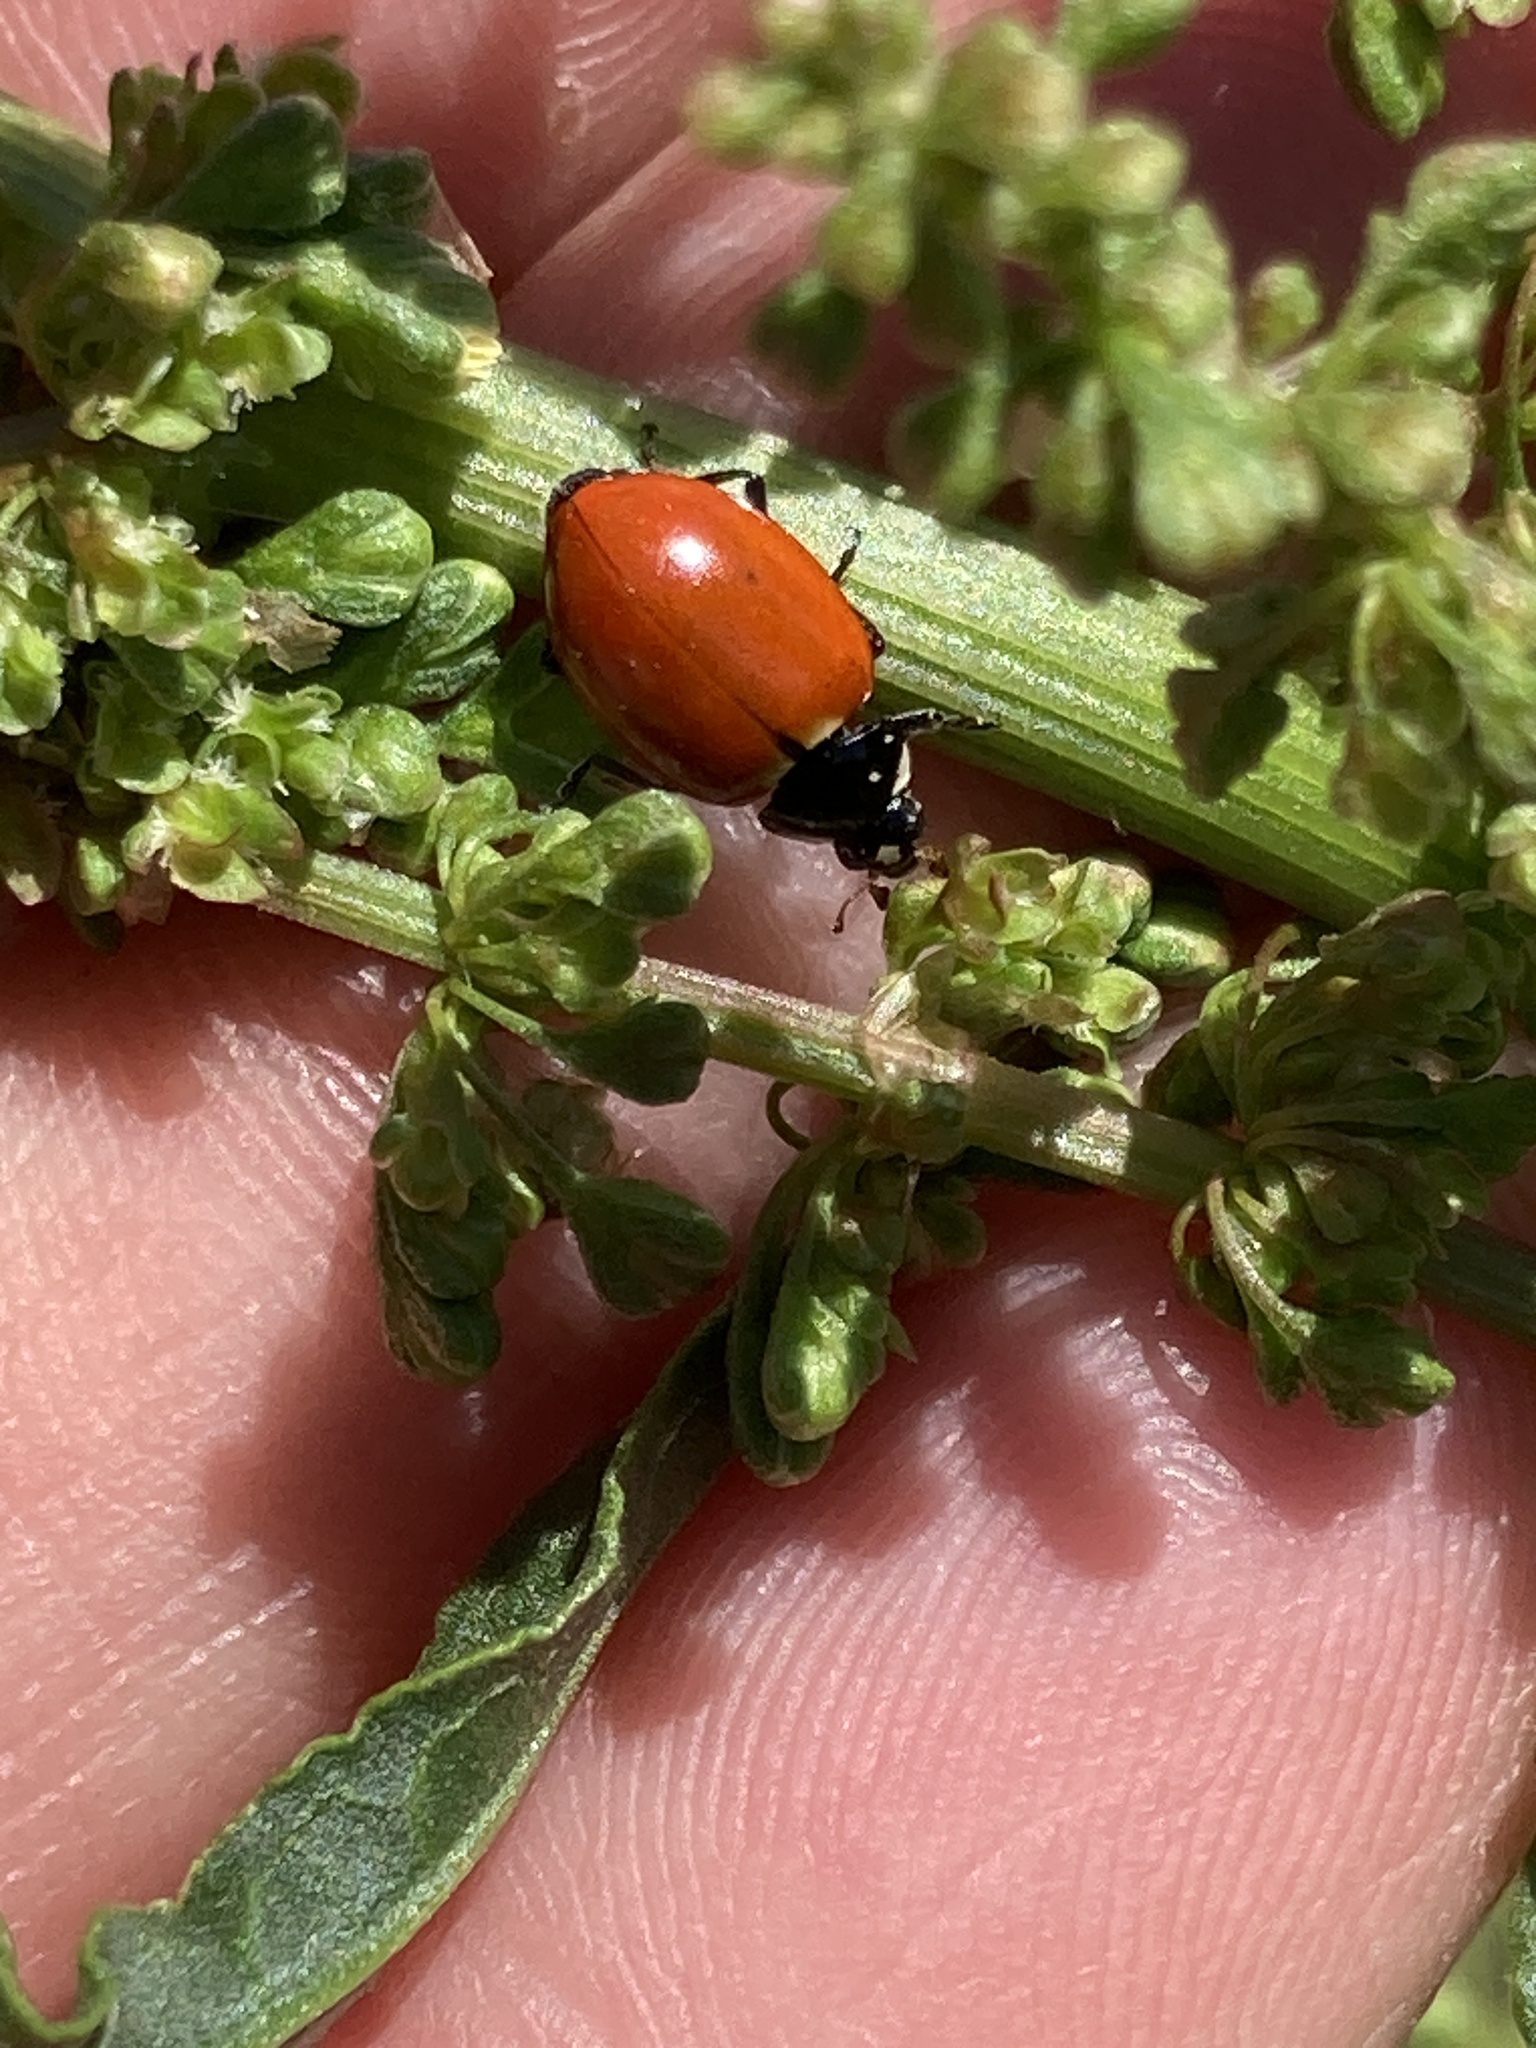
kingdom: Animalia
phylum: Arthropoda
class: Insecta
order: Coleoptera
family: Coccinellidae
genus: Hippodamia
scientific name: Hippodamia quinquesignata
